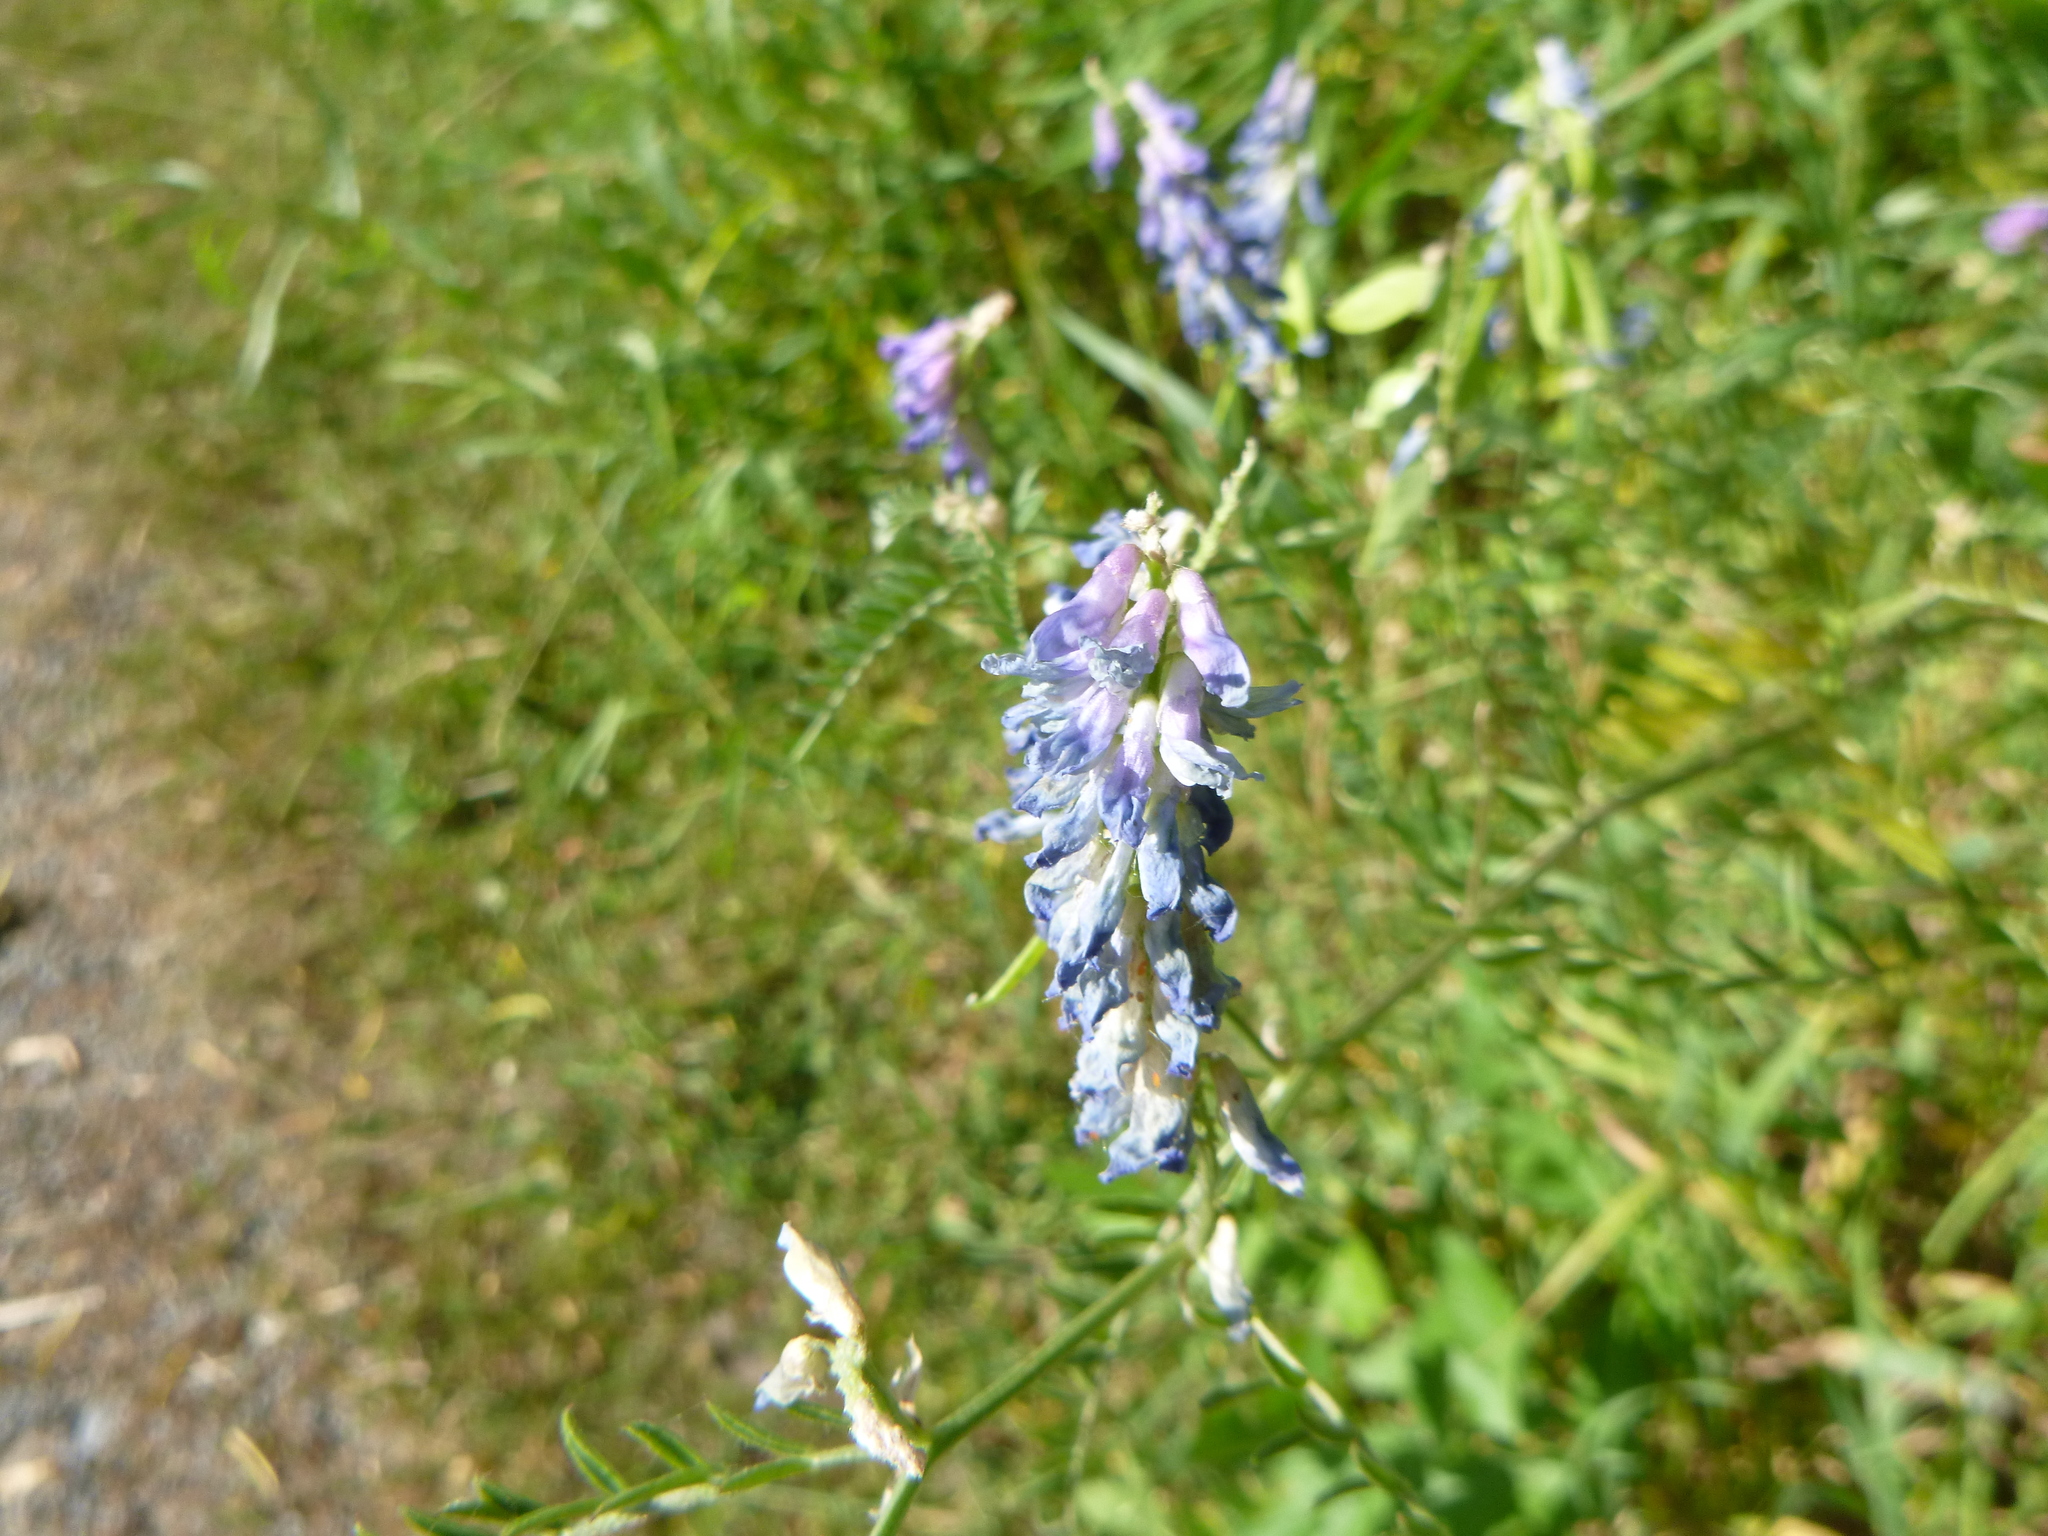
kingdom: Plantae
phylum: Tracheophyta
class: Magnoliopsida
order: Fabales
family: Fabaceae
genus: Vicia
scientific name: Vicia cracca
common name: Bird vetch
